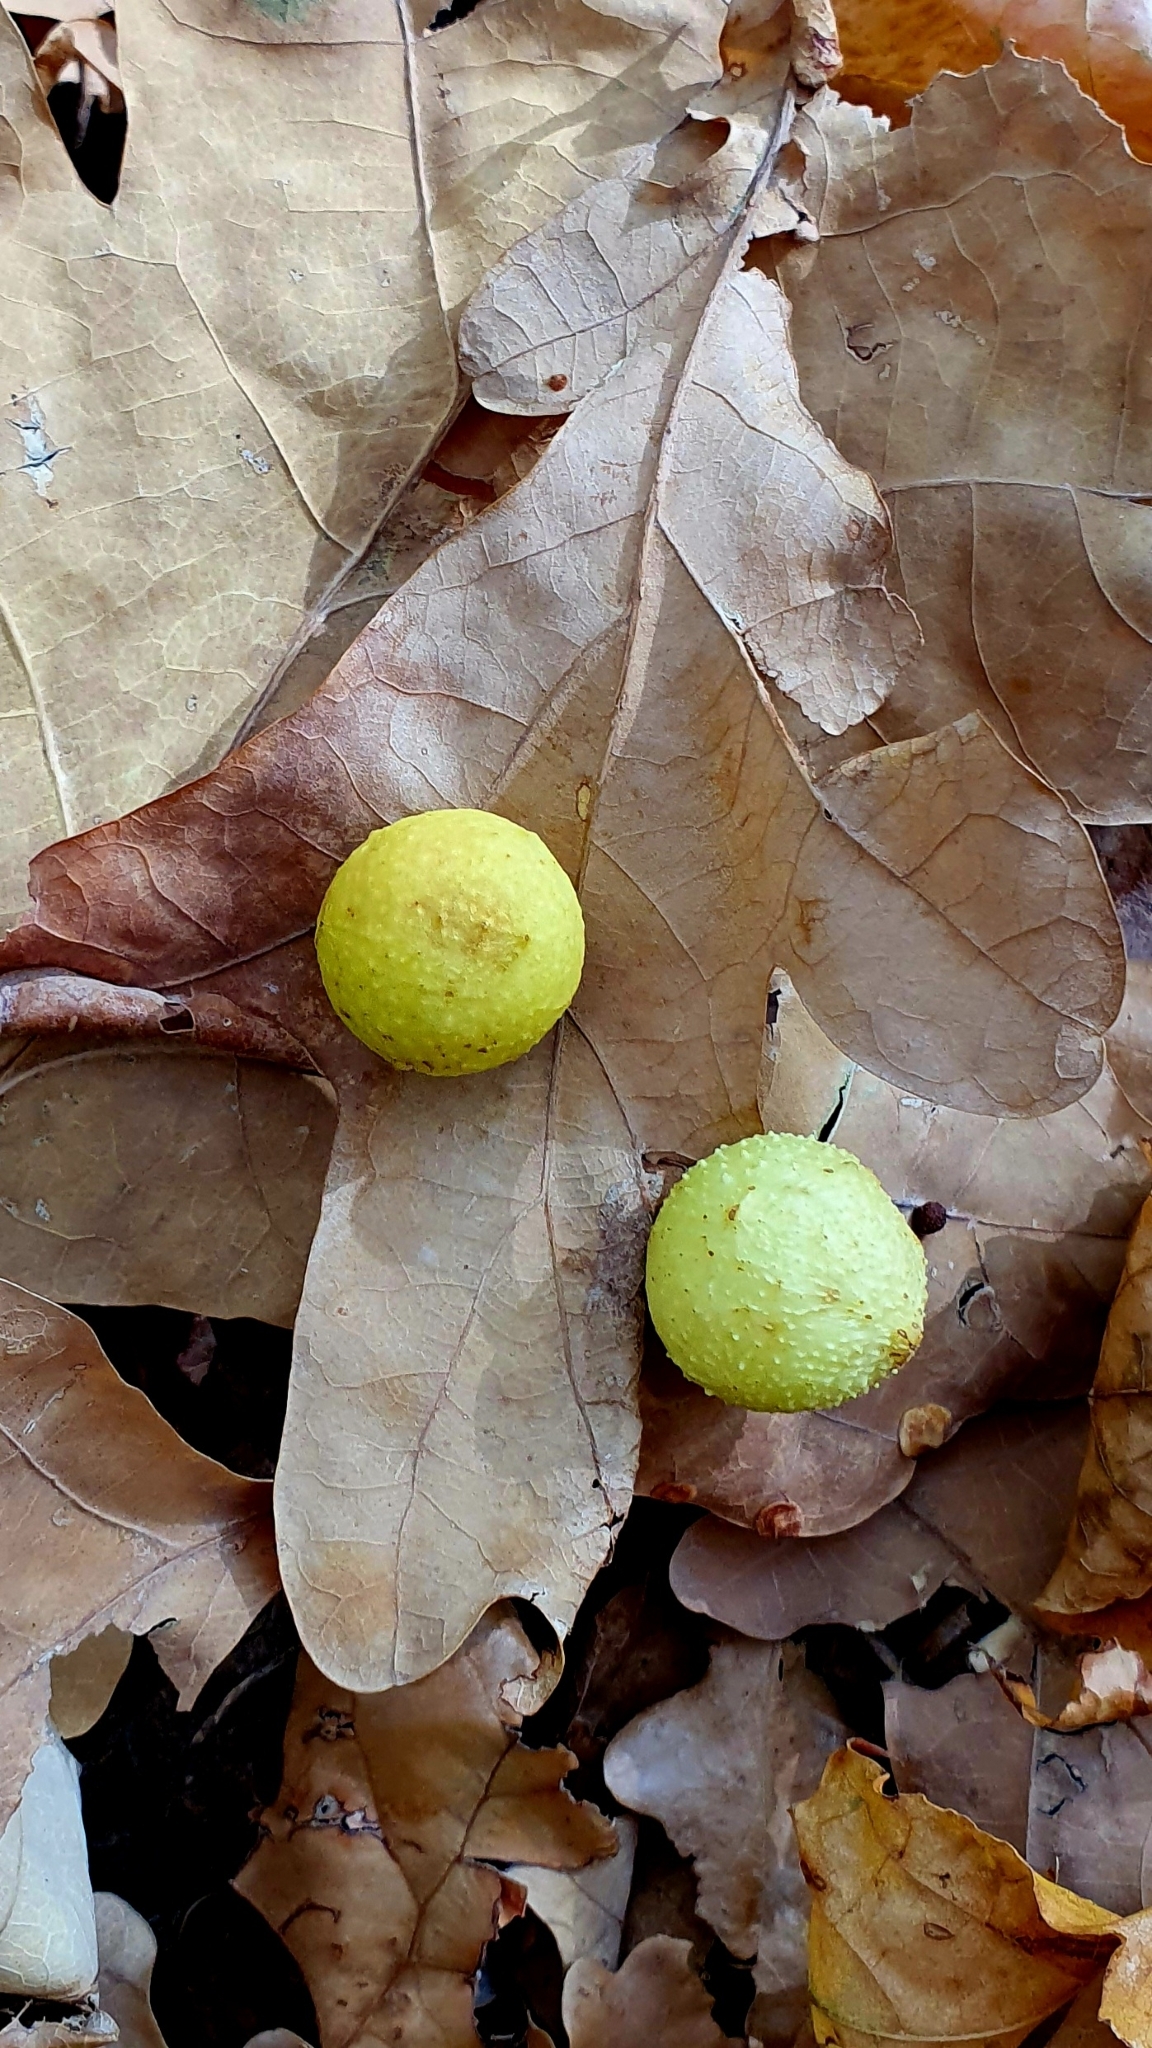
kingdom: Animalia
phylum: Arthropoda
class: Insecta
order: Hymenoptera
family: Cynipidae
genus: Cynips
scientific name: Cynips quercusfolii
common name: Cherry gall
